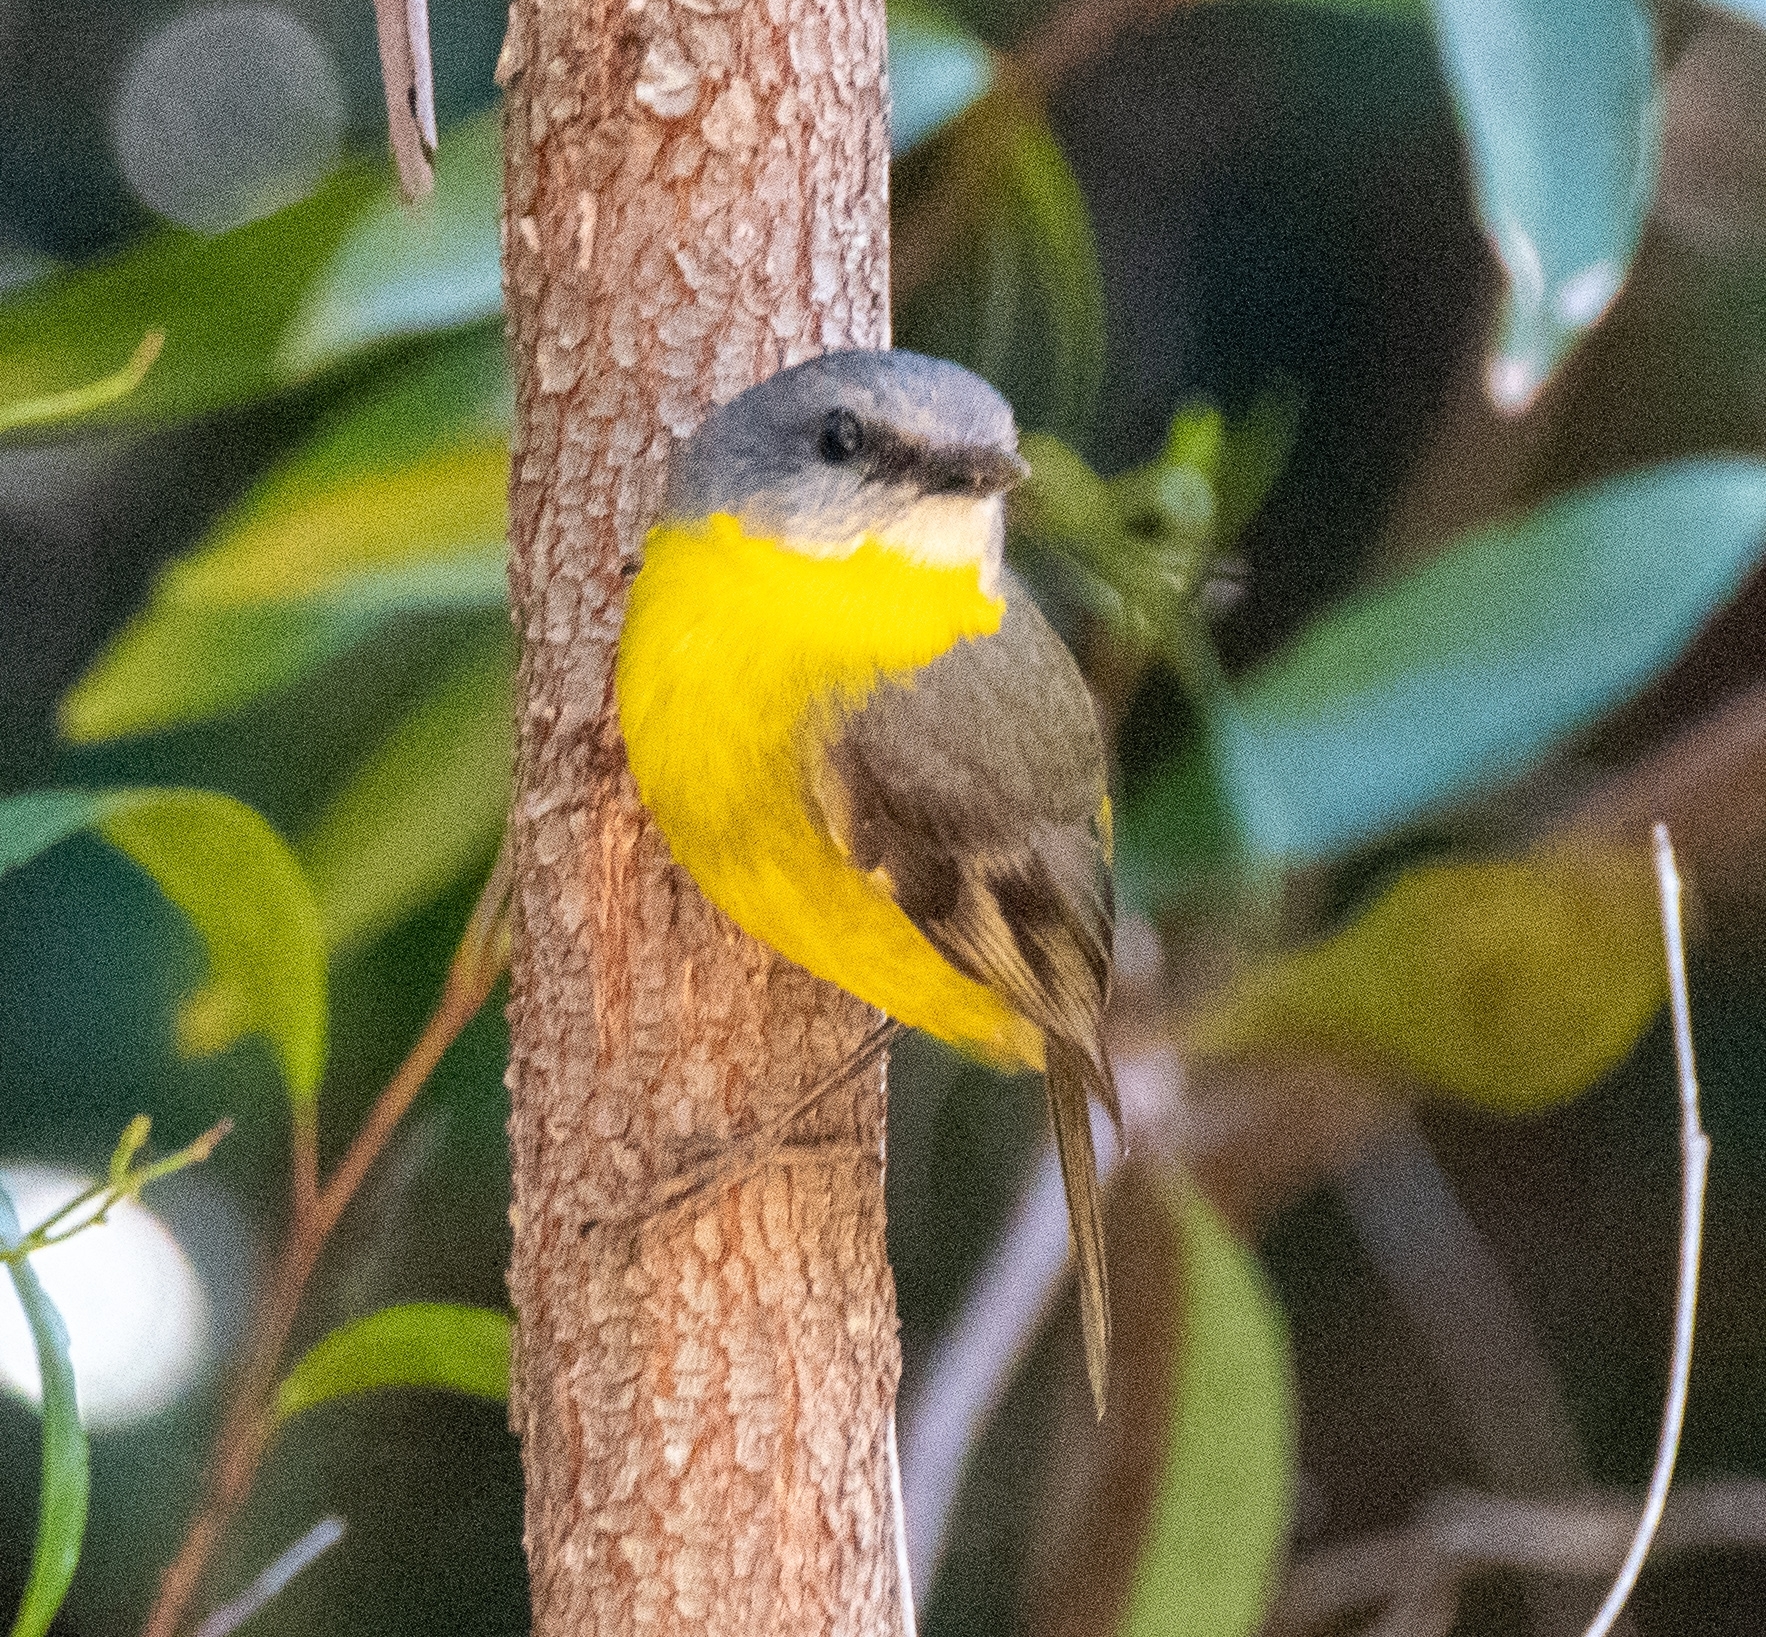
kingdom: Animalia
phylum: Chordata
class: Aves
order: Passeriformes
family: Petroicidae
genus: Eopsaltria
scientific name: Eopsaltria australis
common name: Eastern yellow robin
